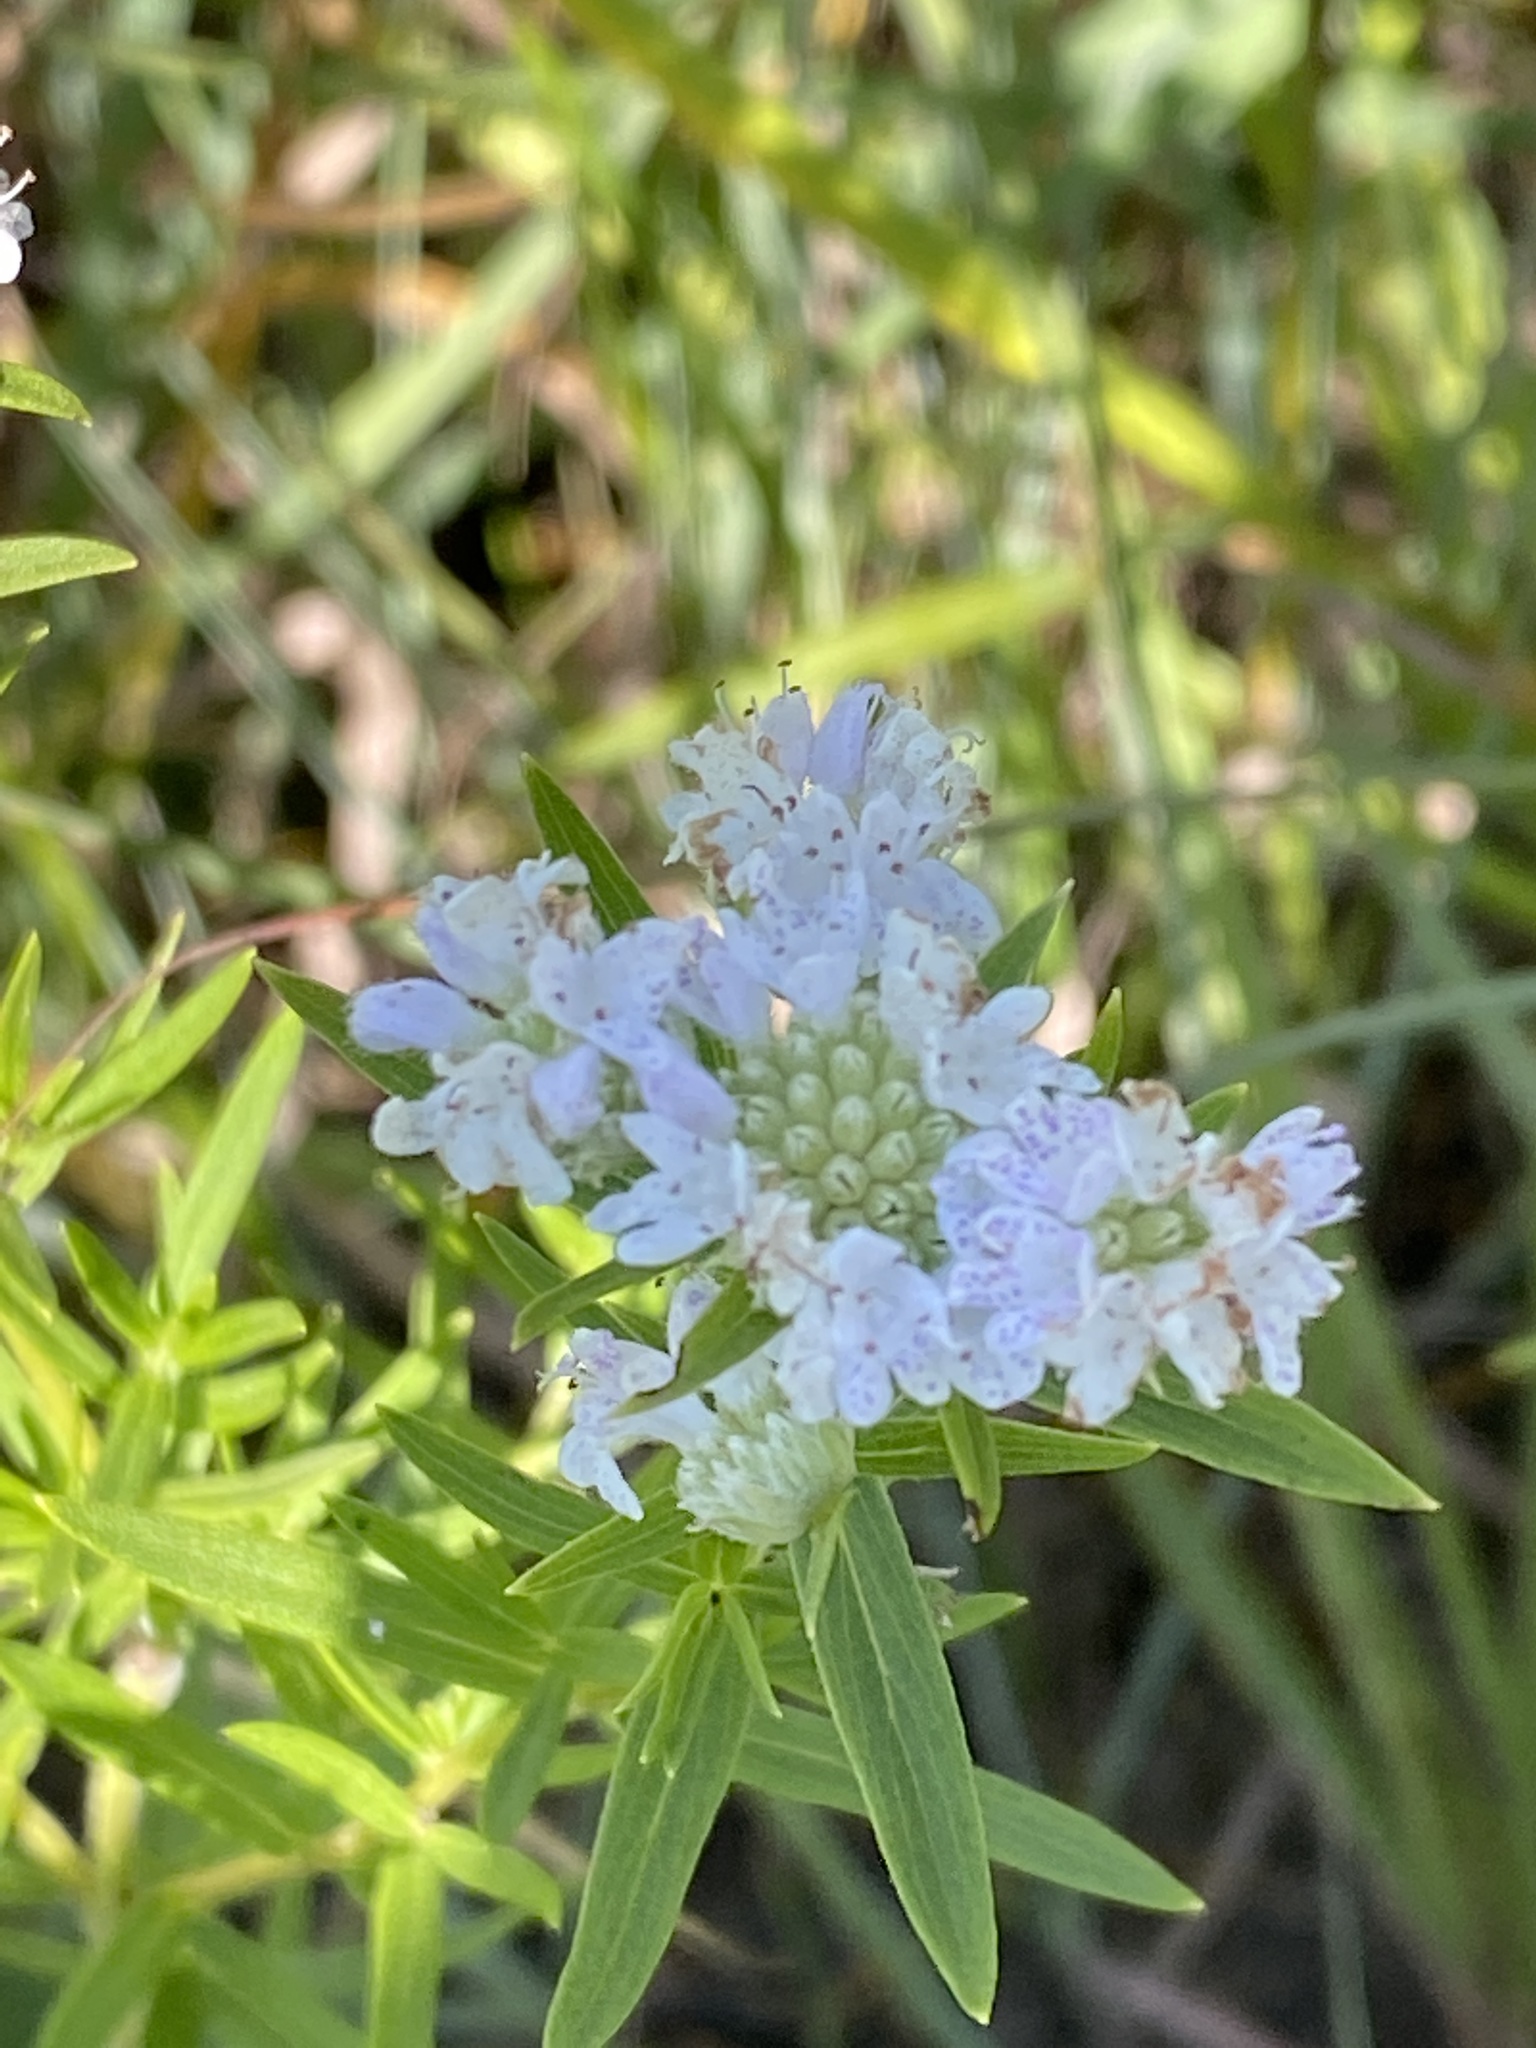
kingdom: Plantae
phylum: Tracheophyta
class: Magnoliopsida
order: Lamiales
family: Lamiaceae
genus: Pycnanthemum
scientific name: Pycnanthemum virginianum
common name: Virginia mountain-mint
